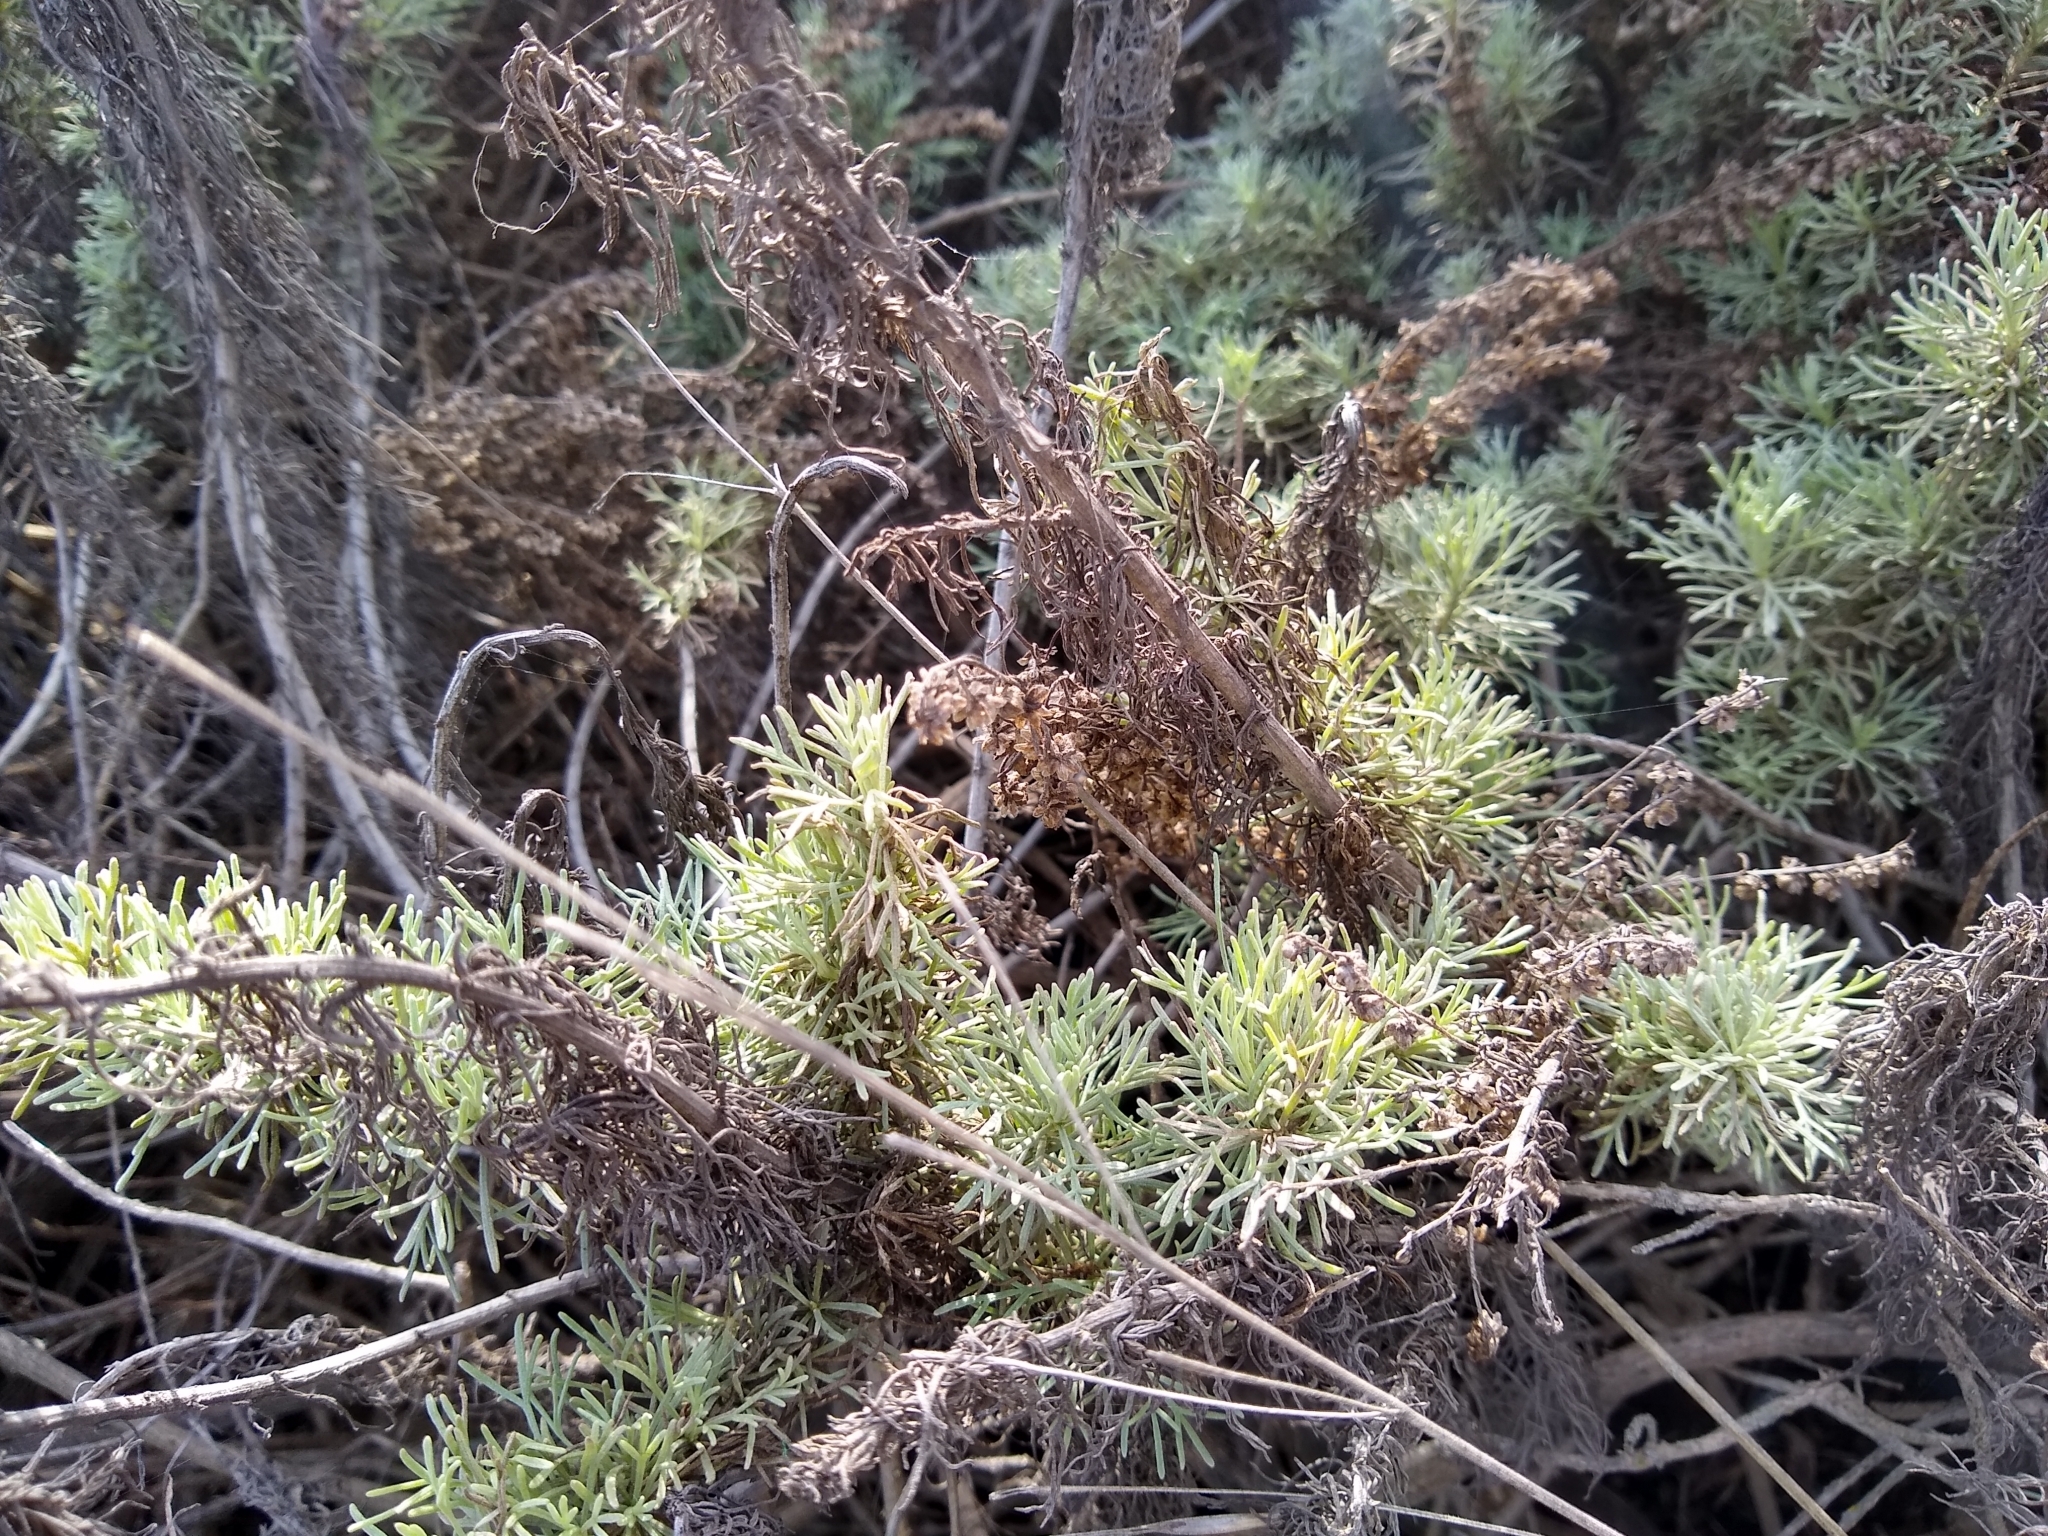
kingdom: Plantae
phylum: Tracheophyta
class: Magnoliopsida
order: Asterales
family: Asteraceae
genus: Artemisia
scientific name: Artemisia californica
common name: California sagebrush
